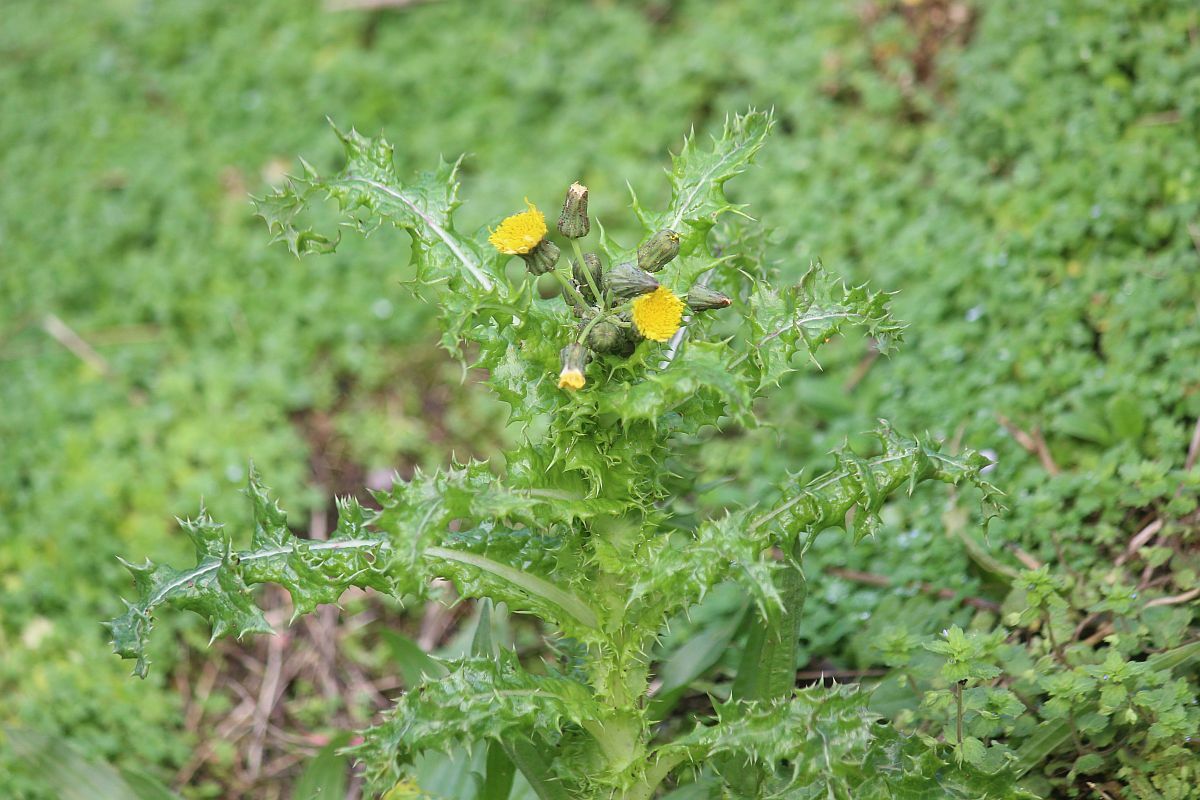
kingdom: Plantae
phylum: Tracheophyta
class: Magnoliopsida
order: Asterales
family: Asteraceae
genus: Sonchus
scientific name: Sonchus asper
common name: Prickly sow-thistle
